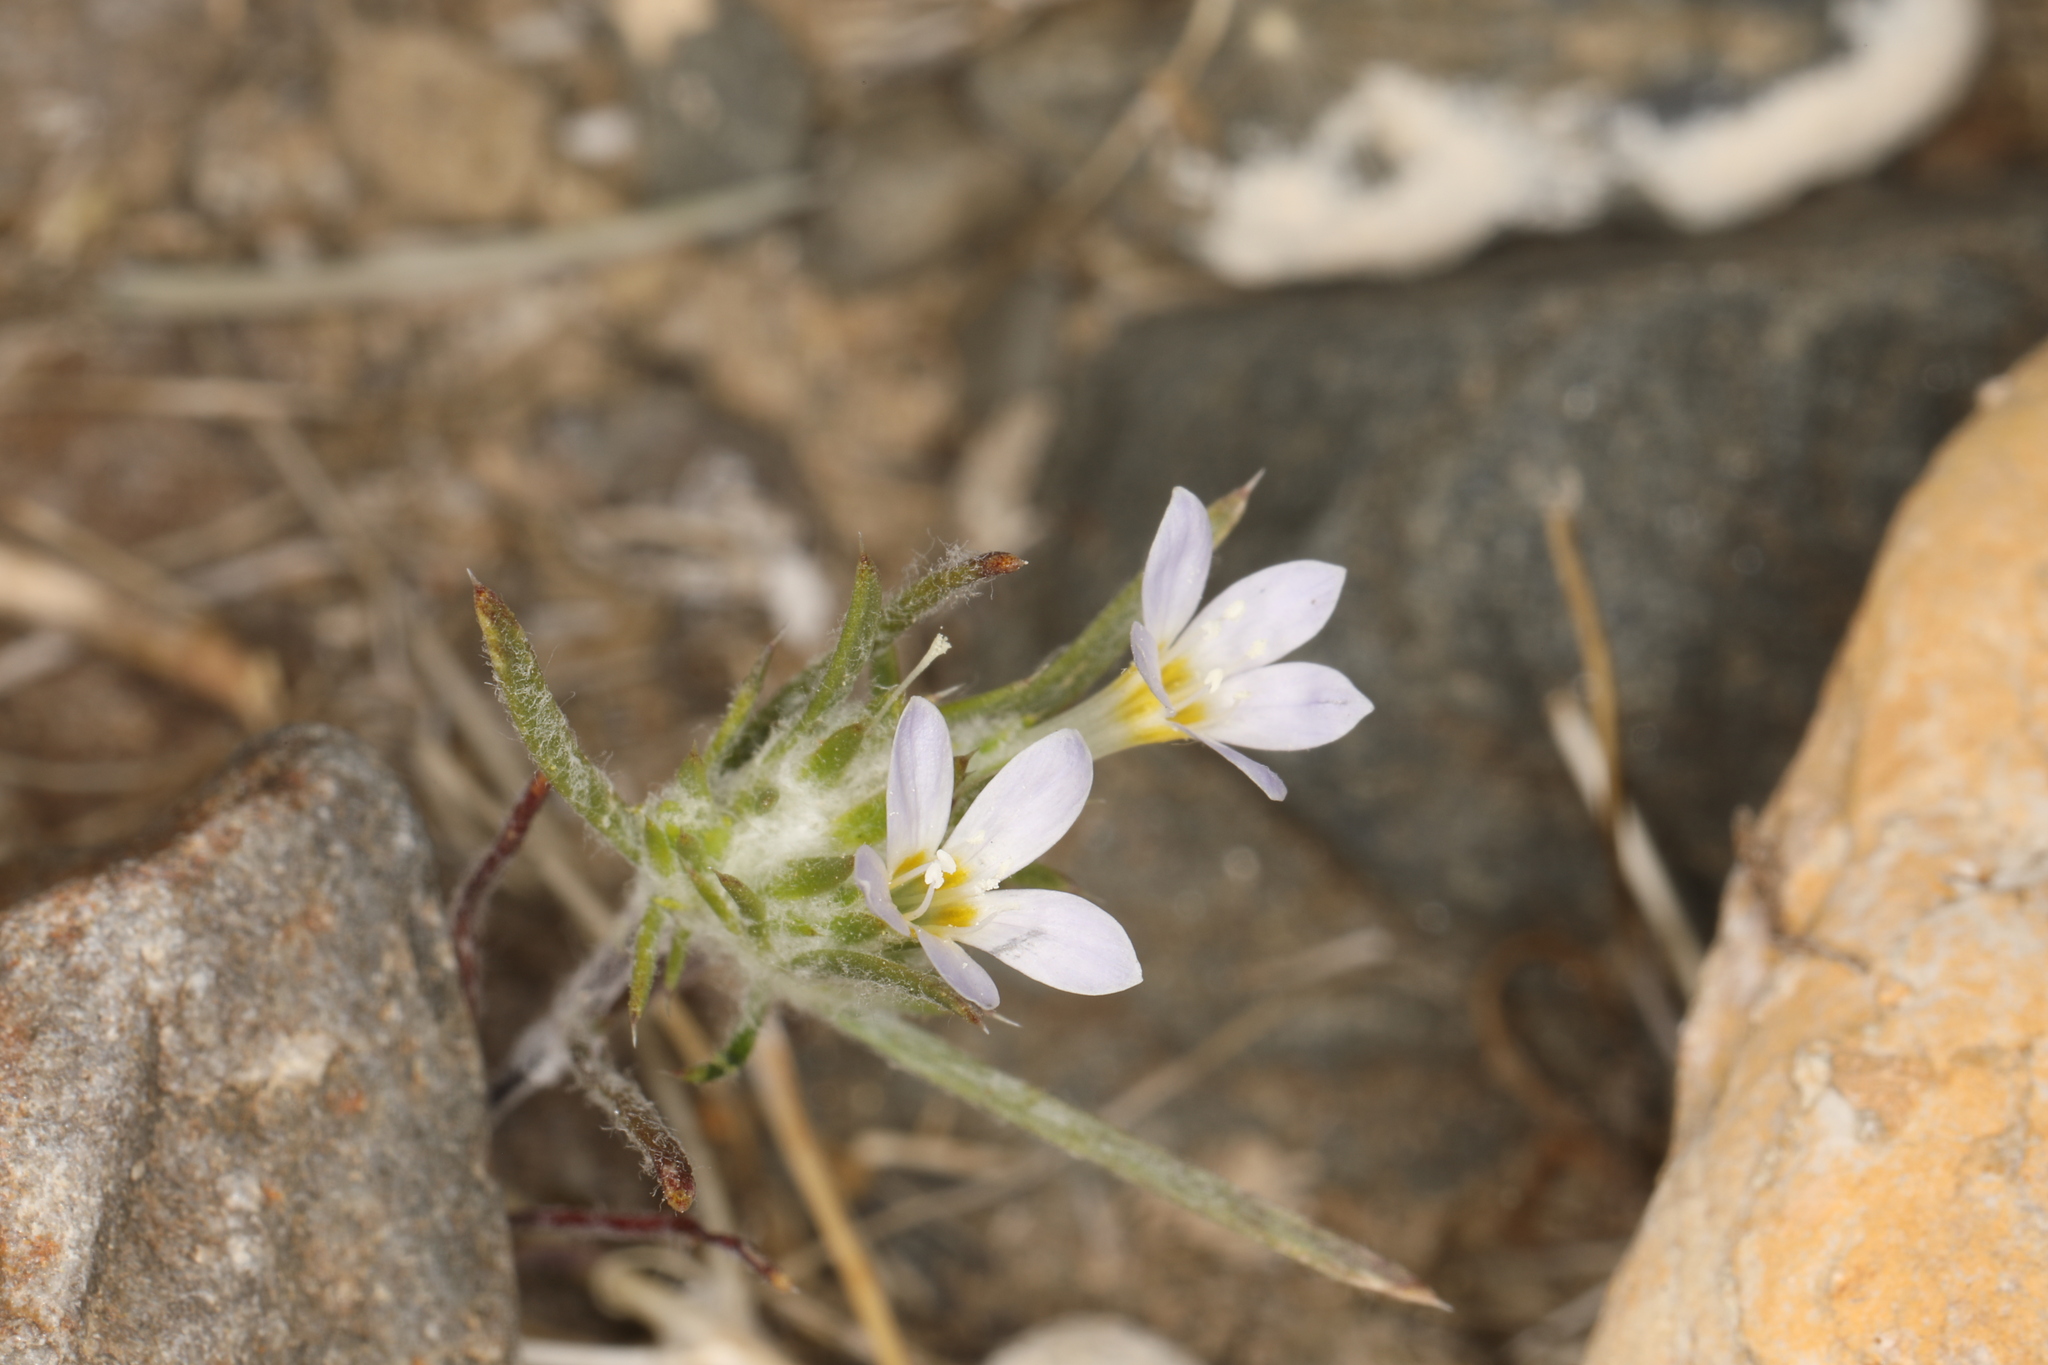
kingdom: Plantae
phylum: Tracheophyta
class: Magnoliopsida
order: Ericales
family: Polemoniaceae
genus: Eriastrum
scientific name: Eriastrum diffusum
